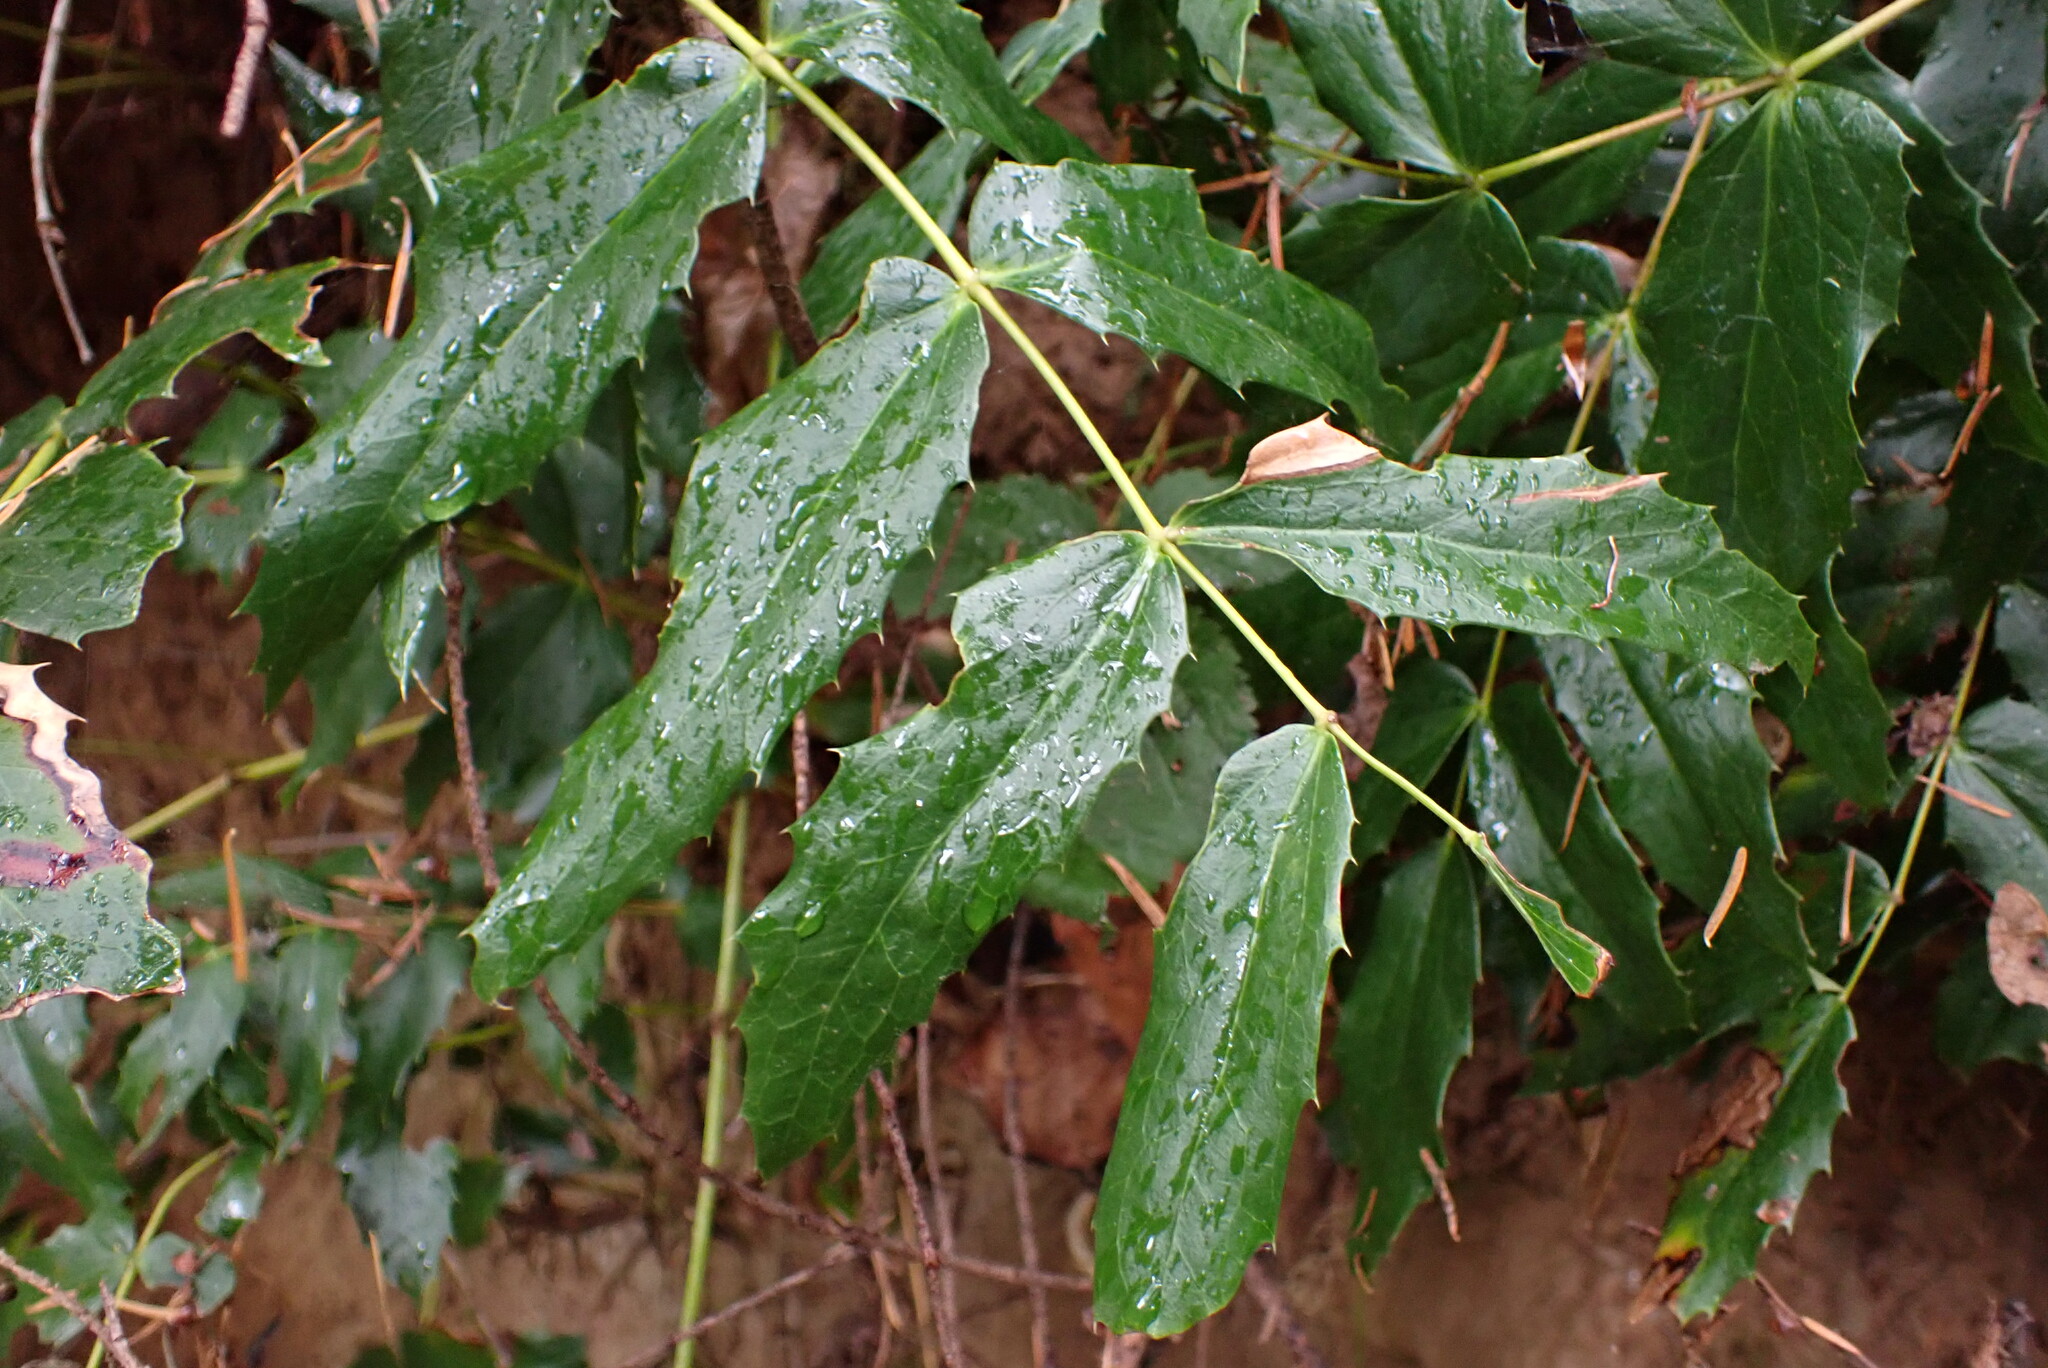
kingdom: Plantae
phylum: Tracheophyta
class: Magnoliopsida
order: Ranunculales
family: Berberidaceae
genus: Mahonia
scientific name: Mahonia nervosa
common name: Cascade oregon-grape
